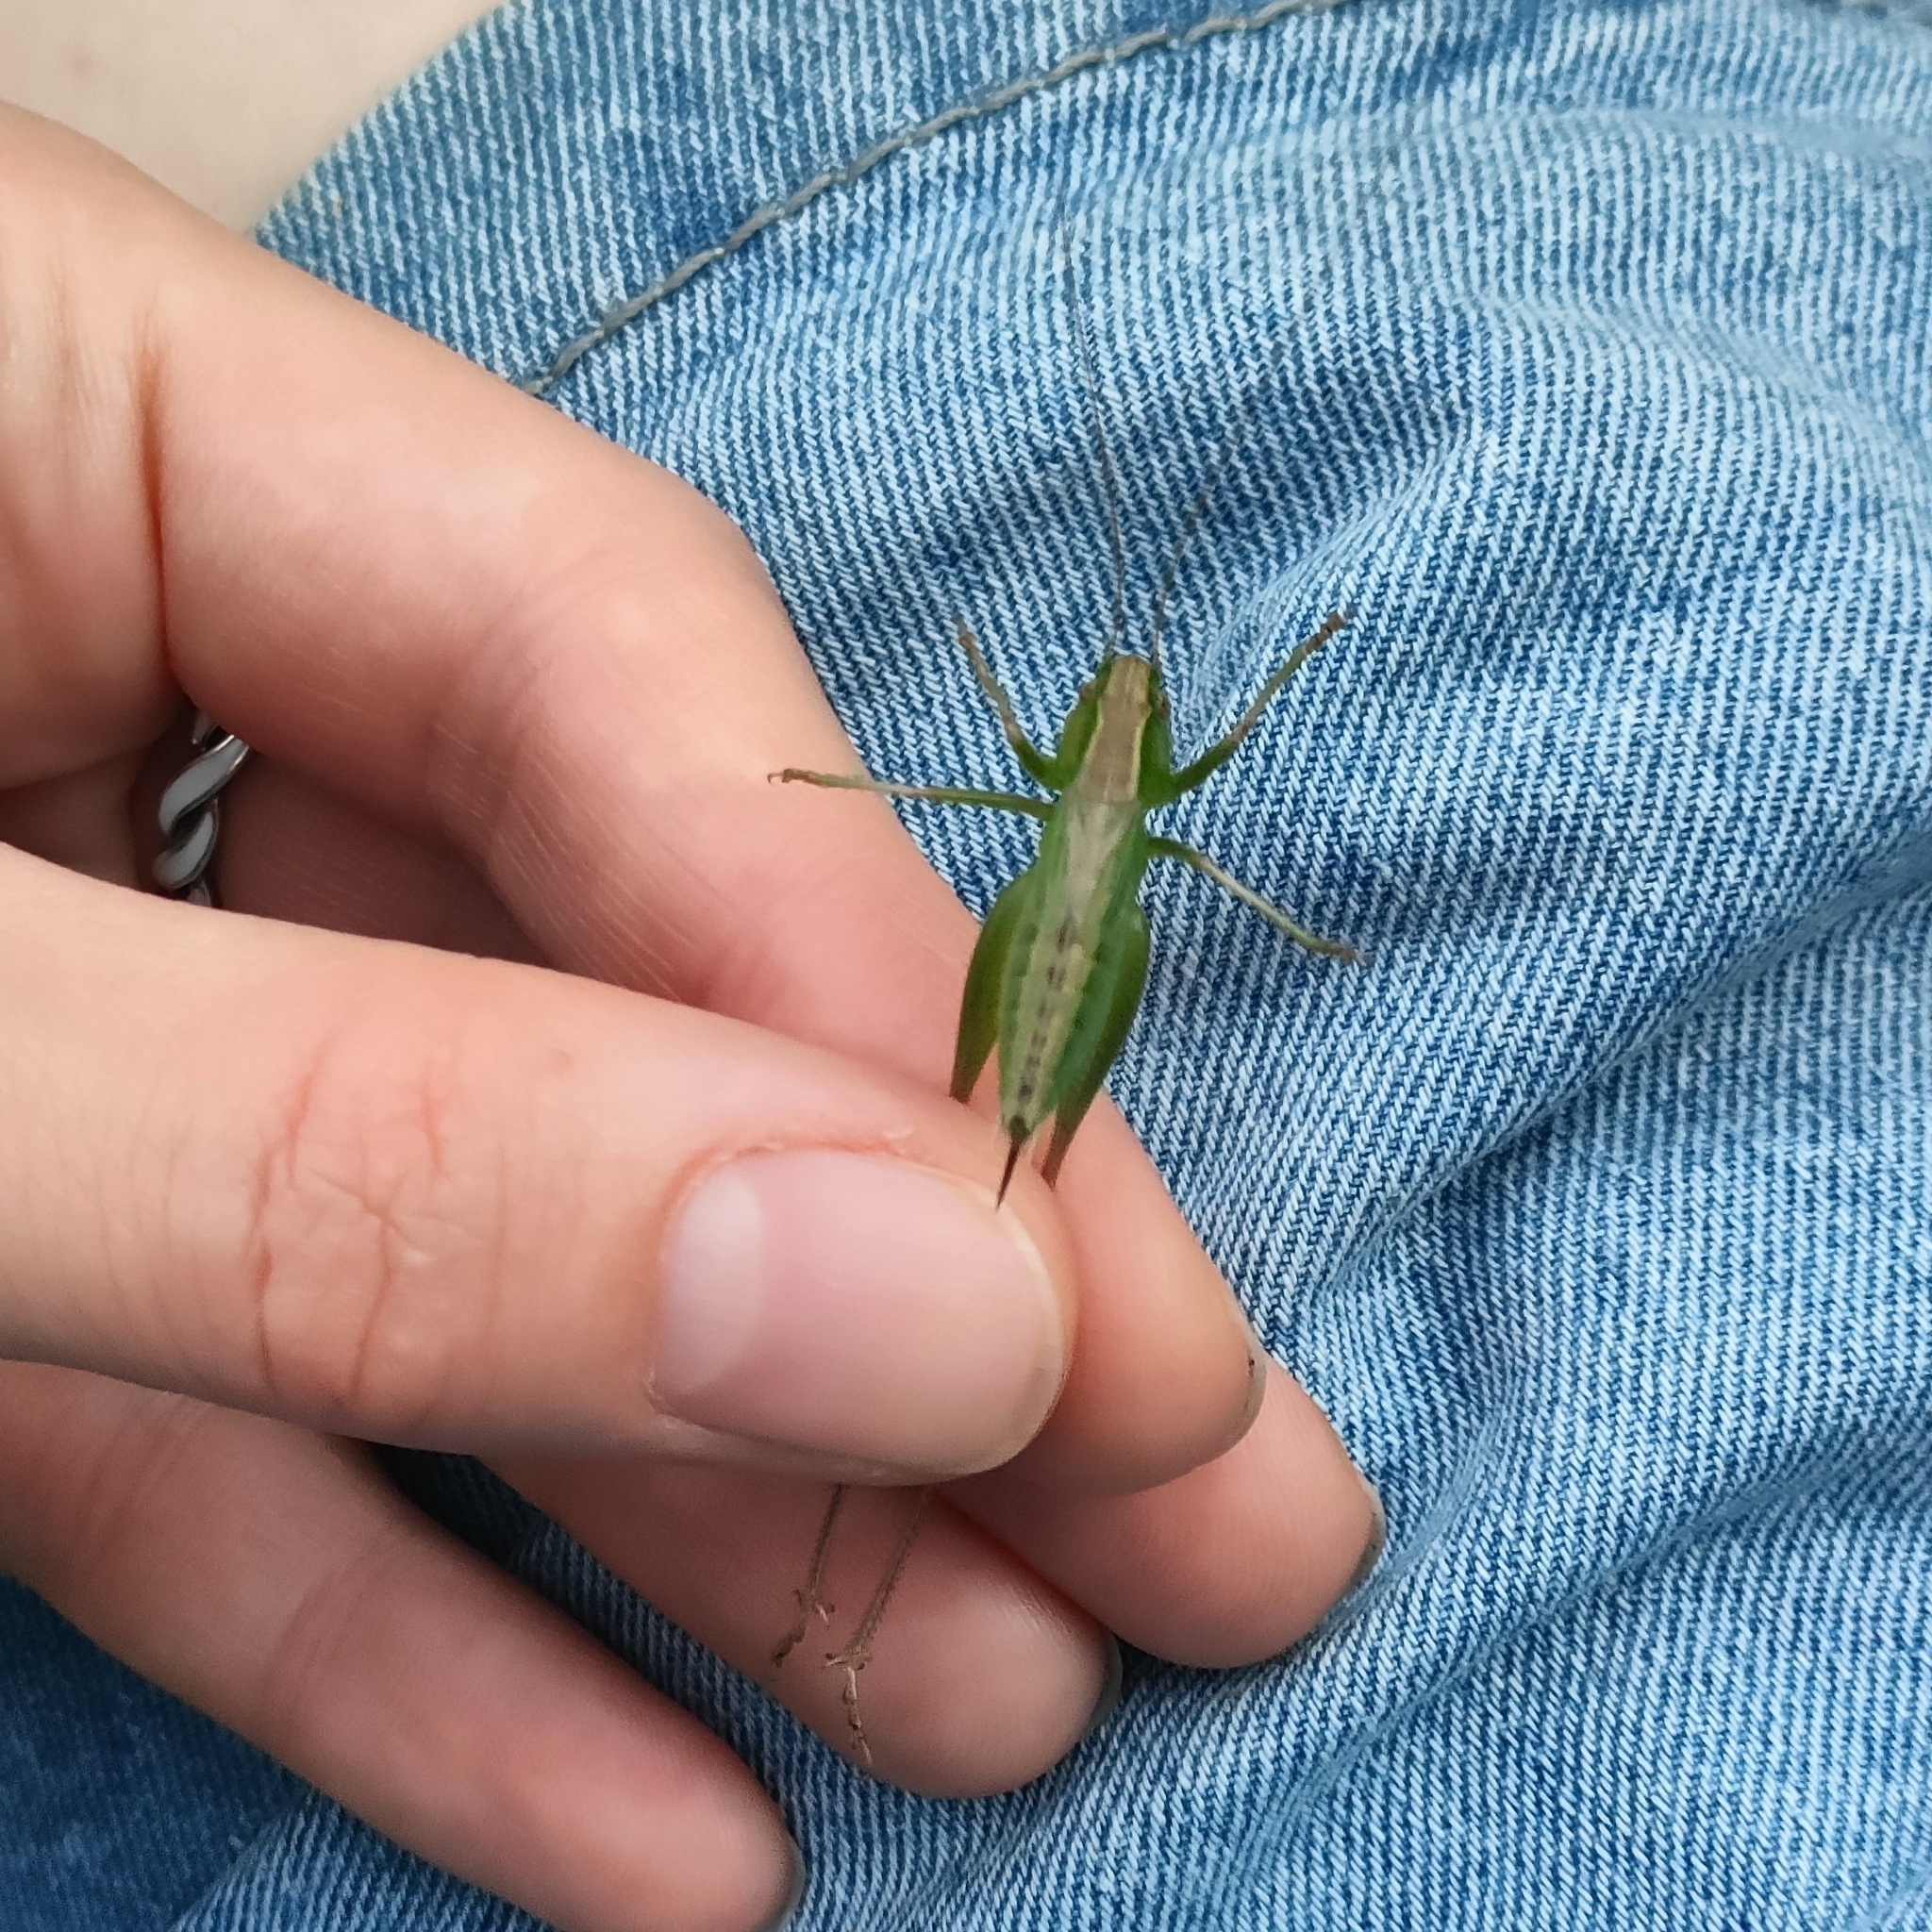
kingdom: Animalia
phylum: Arthropoda
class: Insecta
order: Orthoptera
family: Tettigoniidae
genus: Bicolorana
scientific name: Bicolorana bicolor
